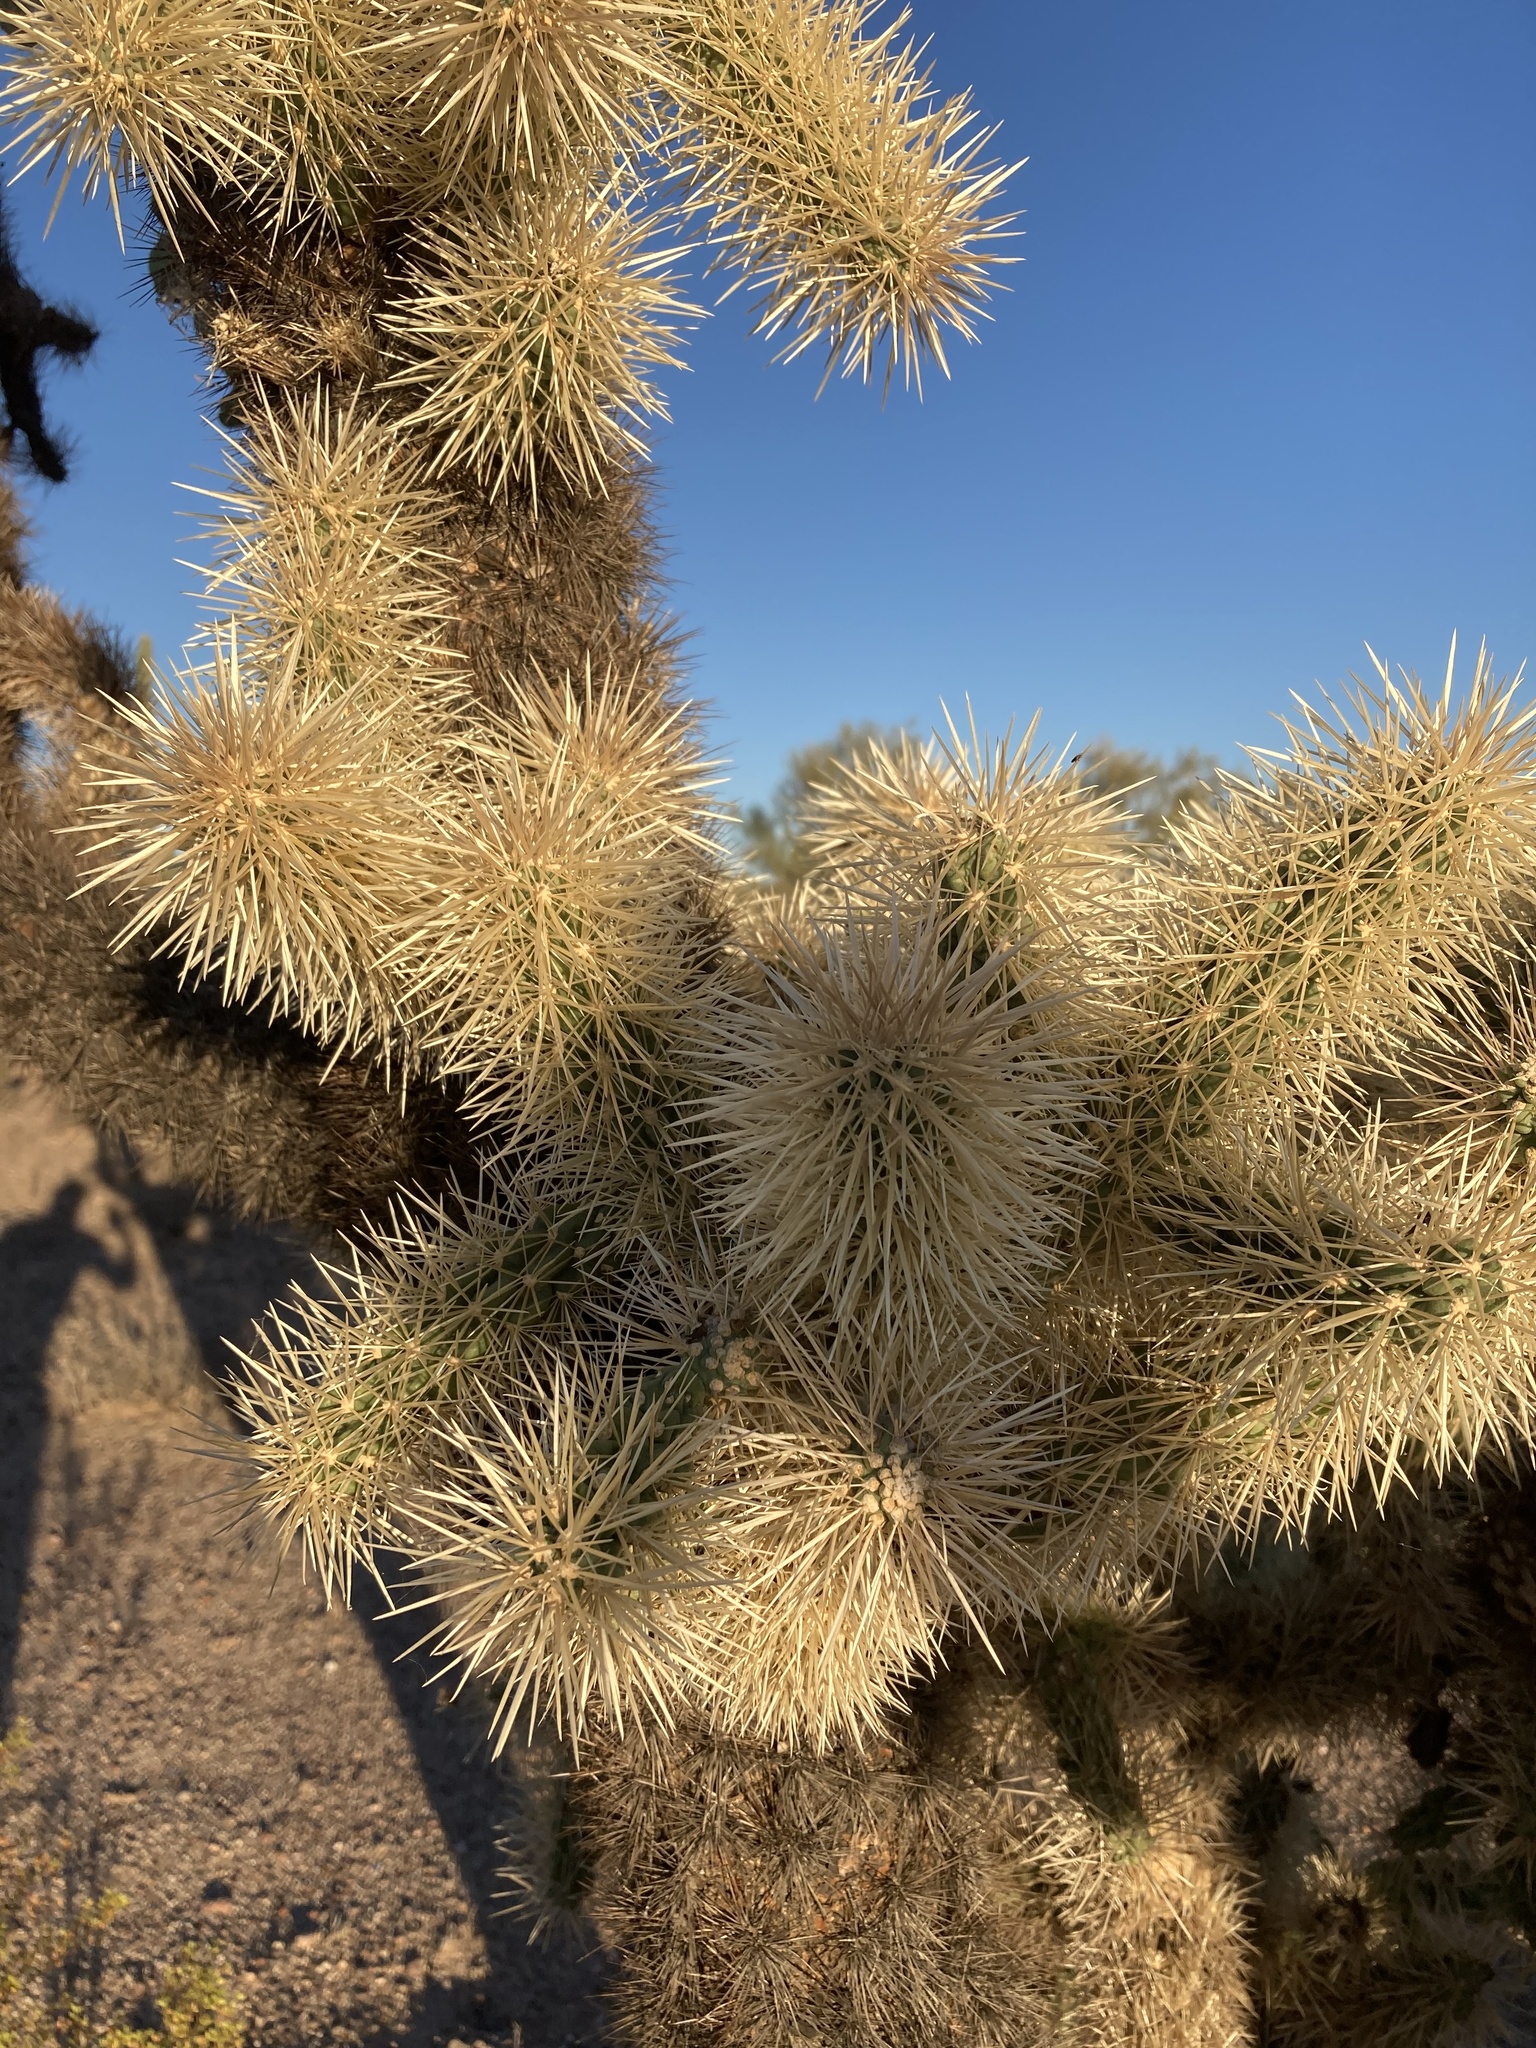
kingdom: Plantae
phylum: Tracheophyta
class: Magnoliopsida
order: Caryophyllales
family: Cactaceae
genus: Cylindropuntia
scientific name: Cylindropuntia fulgida
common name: Jumping cholla
